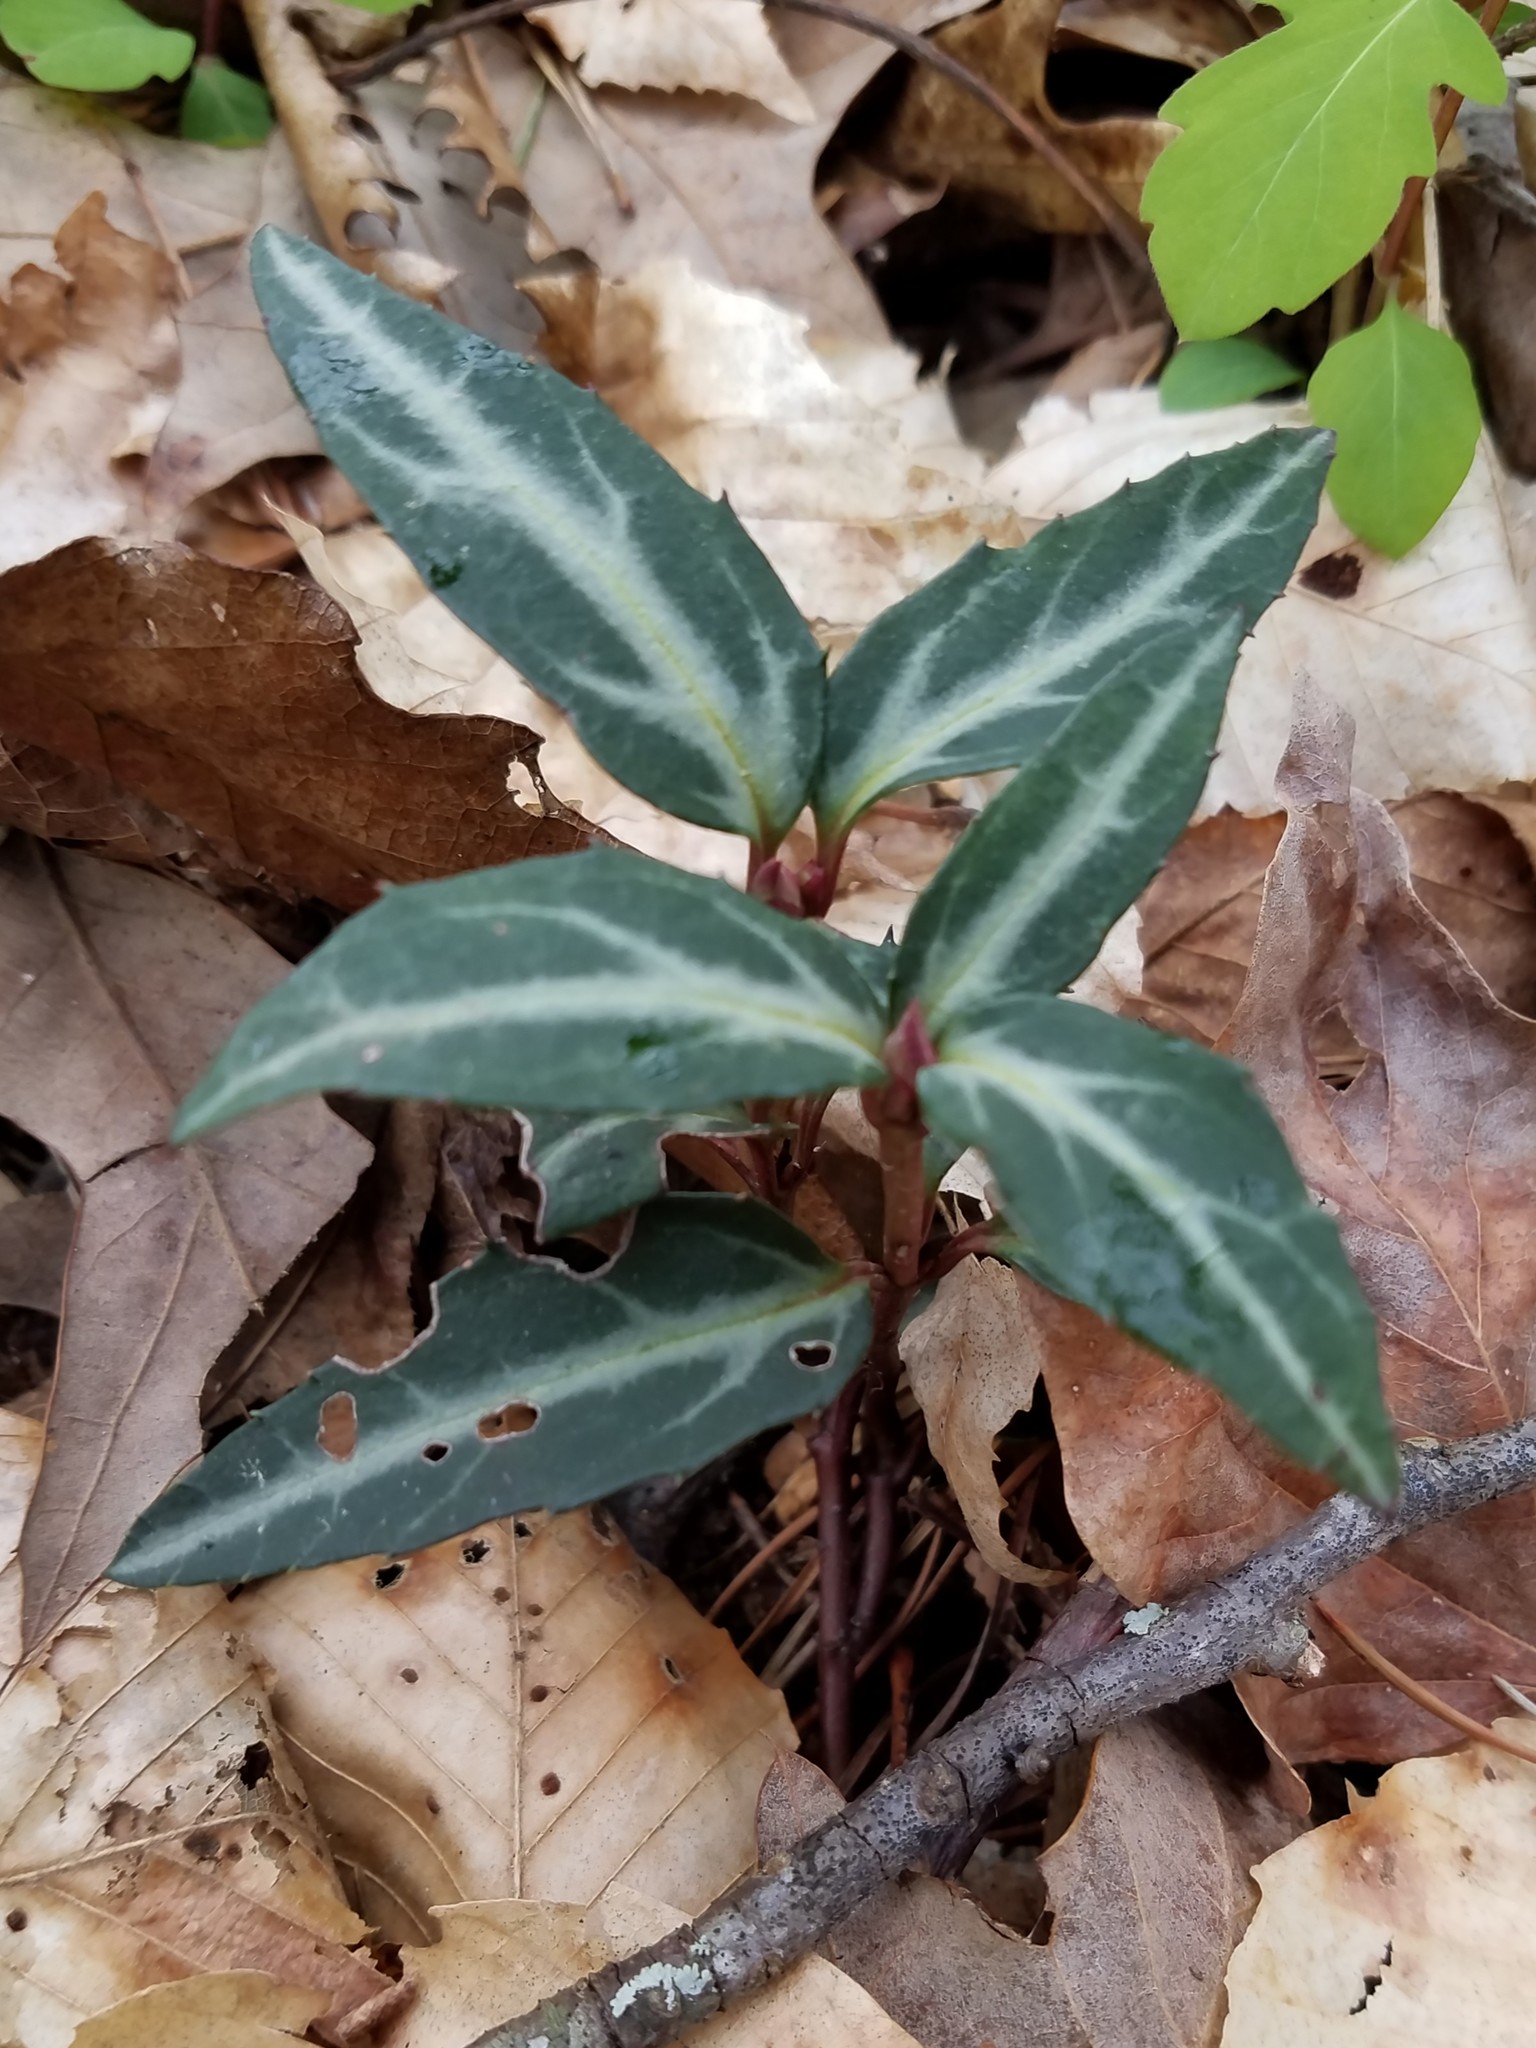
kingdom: Plantae
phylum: Tracheophyta
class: Magnoliopsida
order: Ericales
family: Ericaceae
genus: Chimaphila
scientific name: Chimaphila maculata
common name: Spotted pipsissewa
